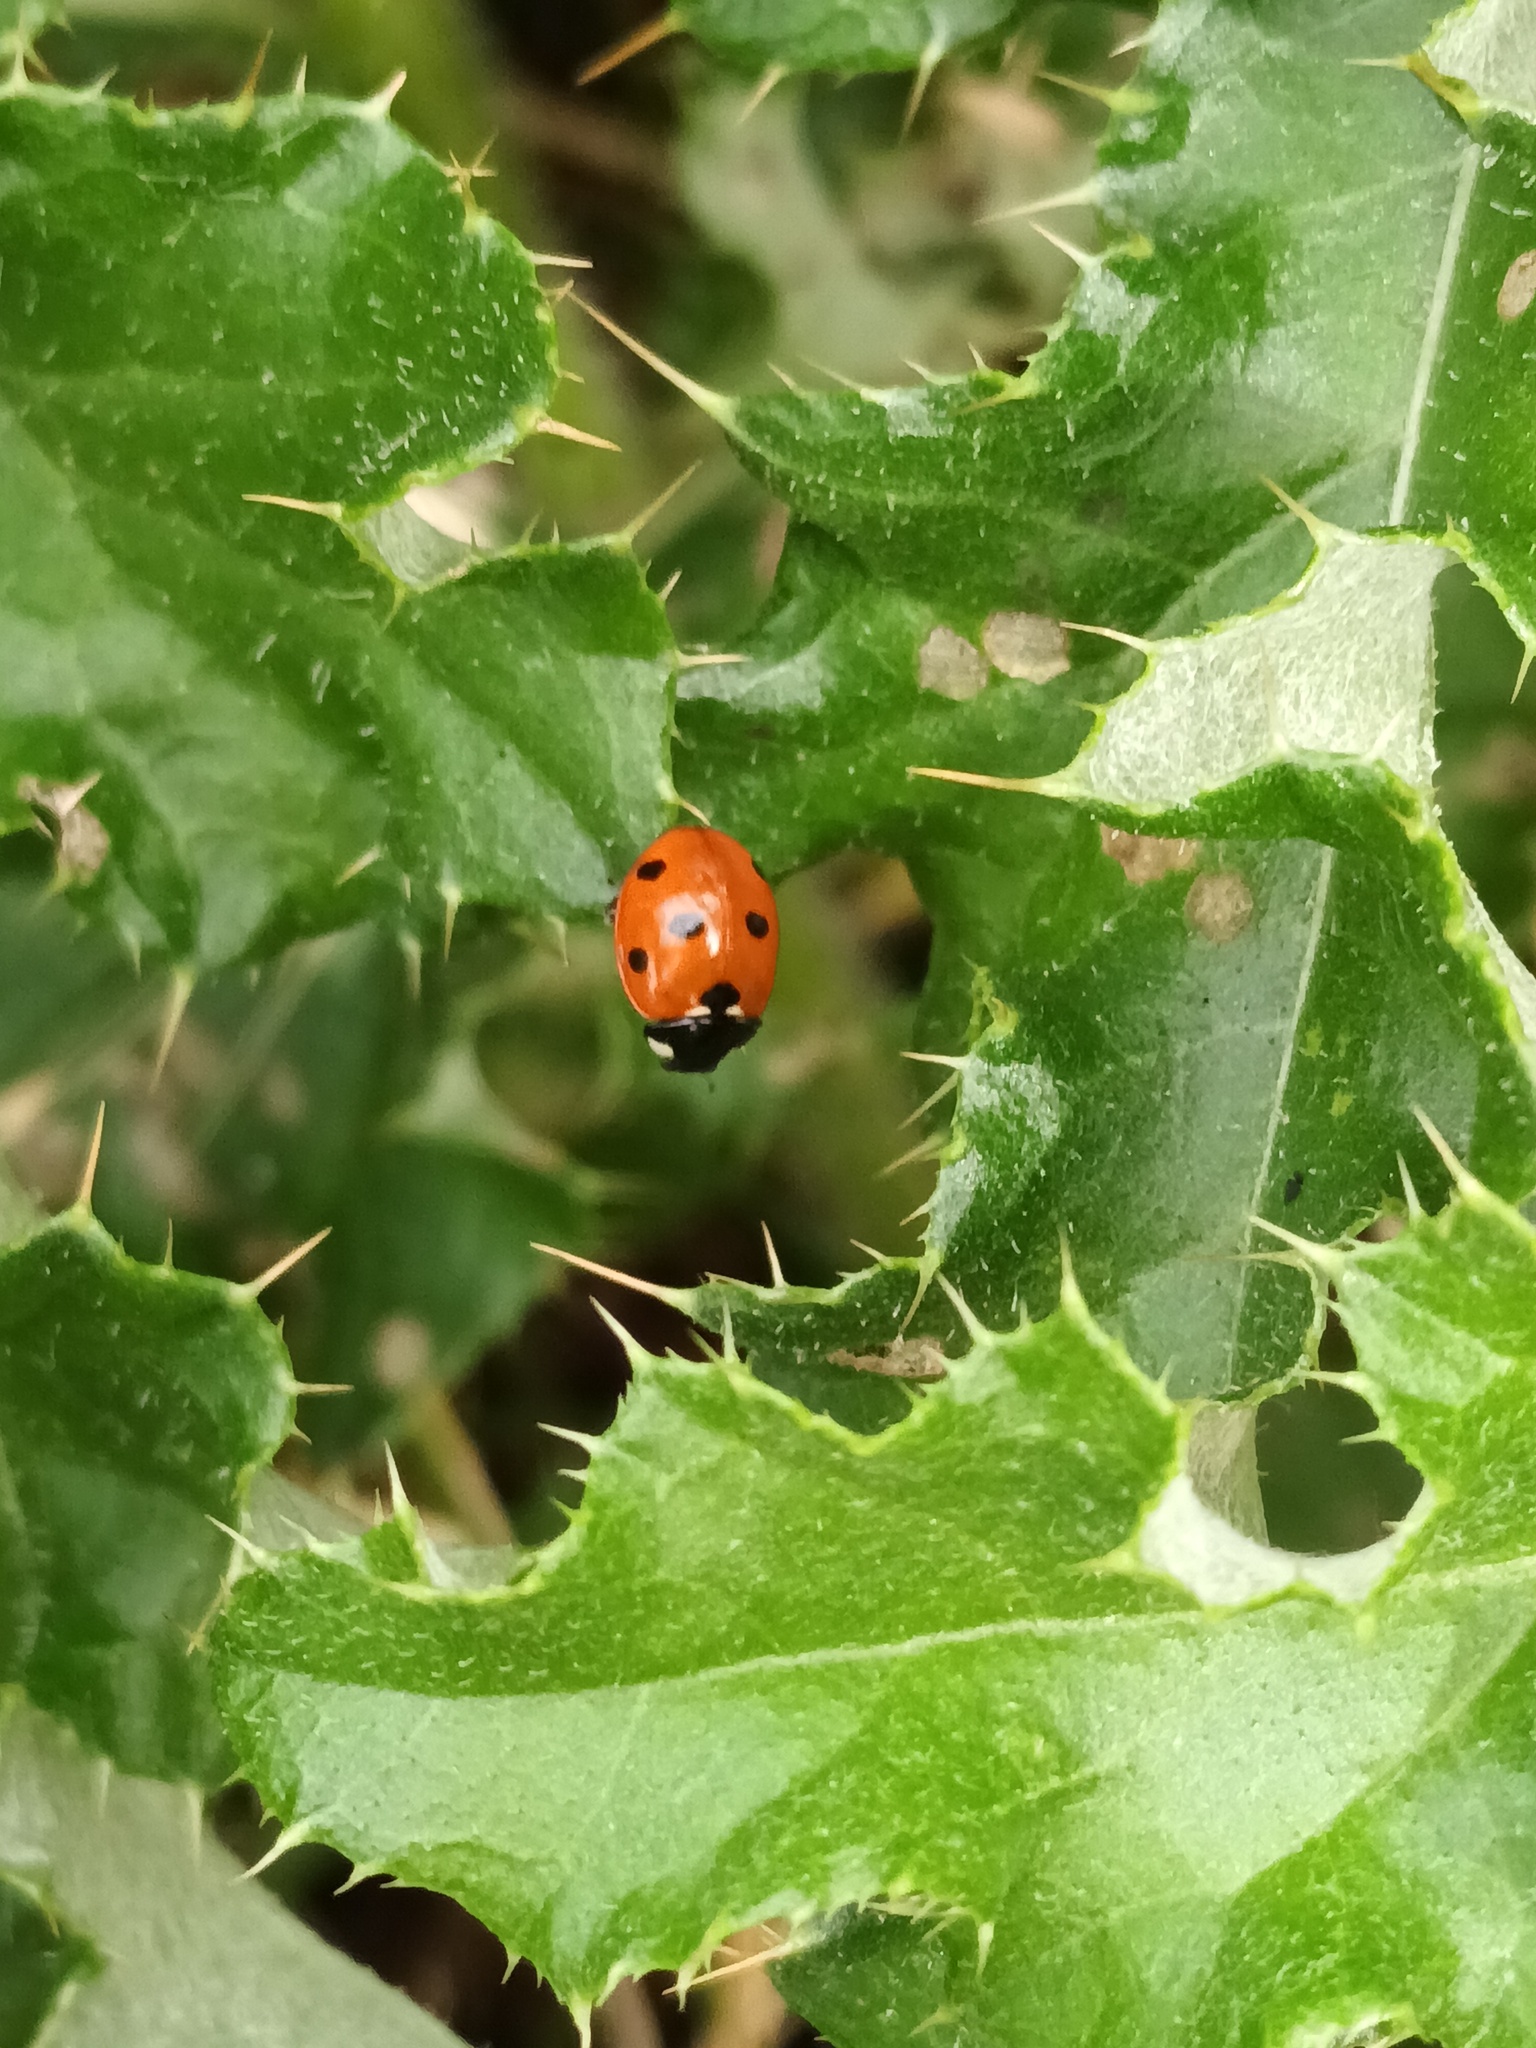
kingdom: Animalia
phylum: Arthropoda
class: Insecta
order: Coleoptera
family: Coccinellidae
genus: Coccinella
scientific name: Coccinella septempunctata
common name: Sevenspotted lady beetle
